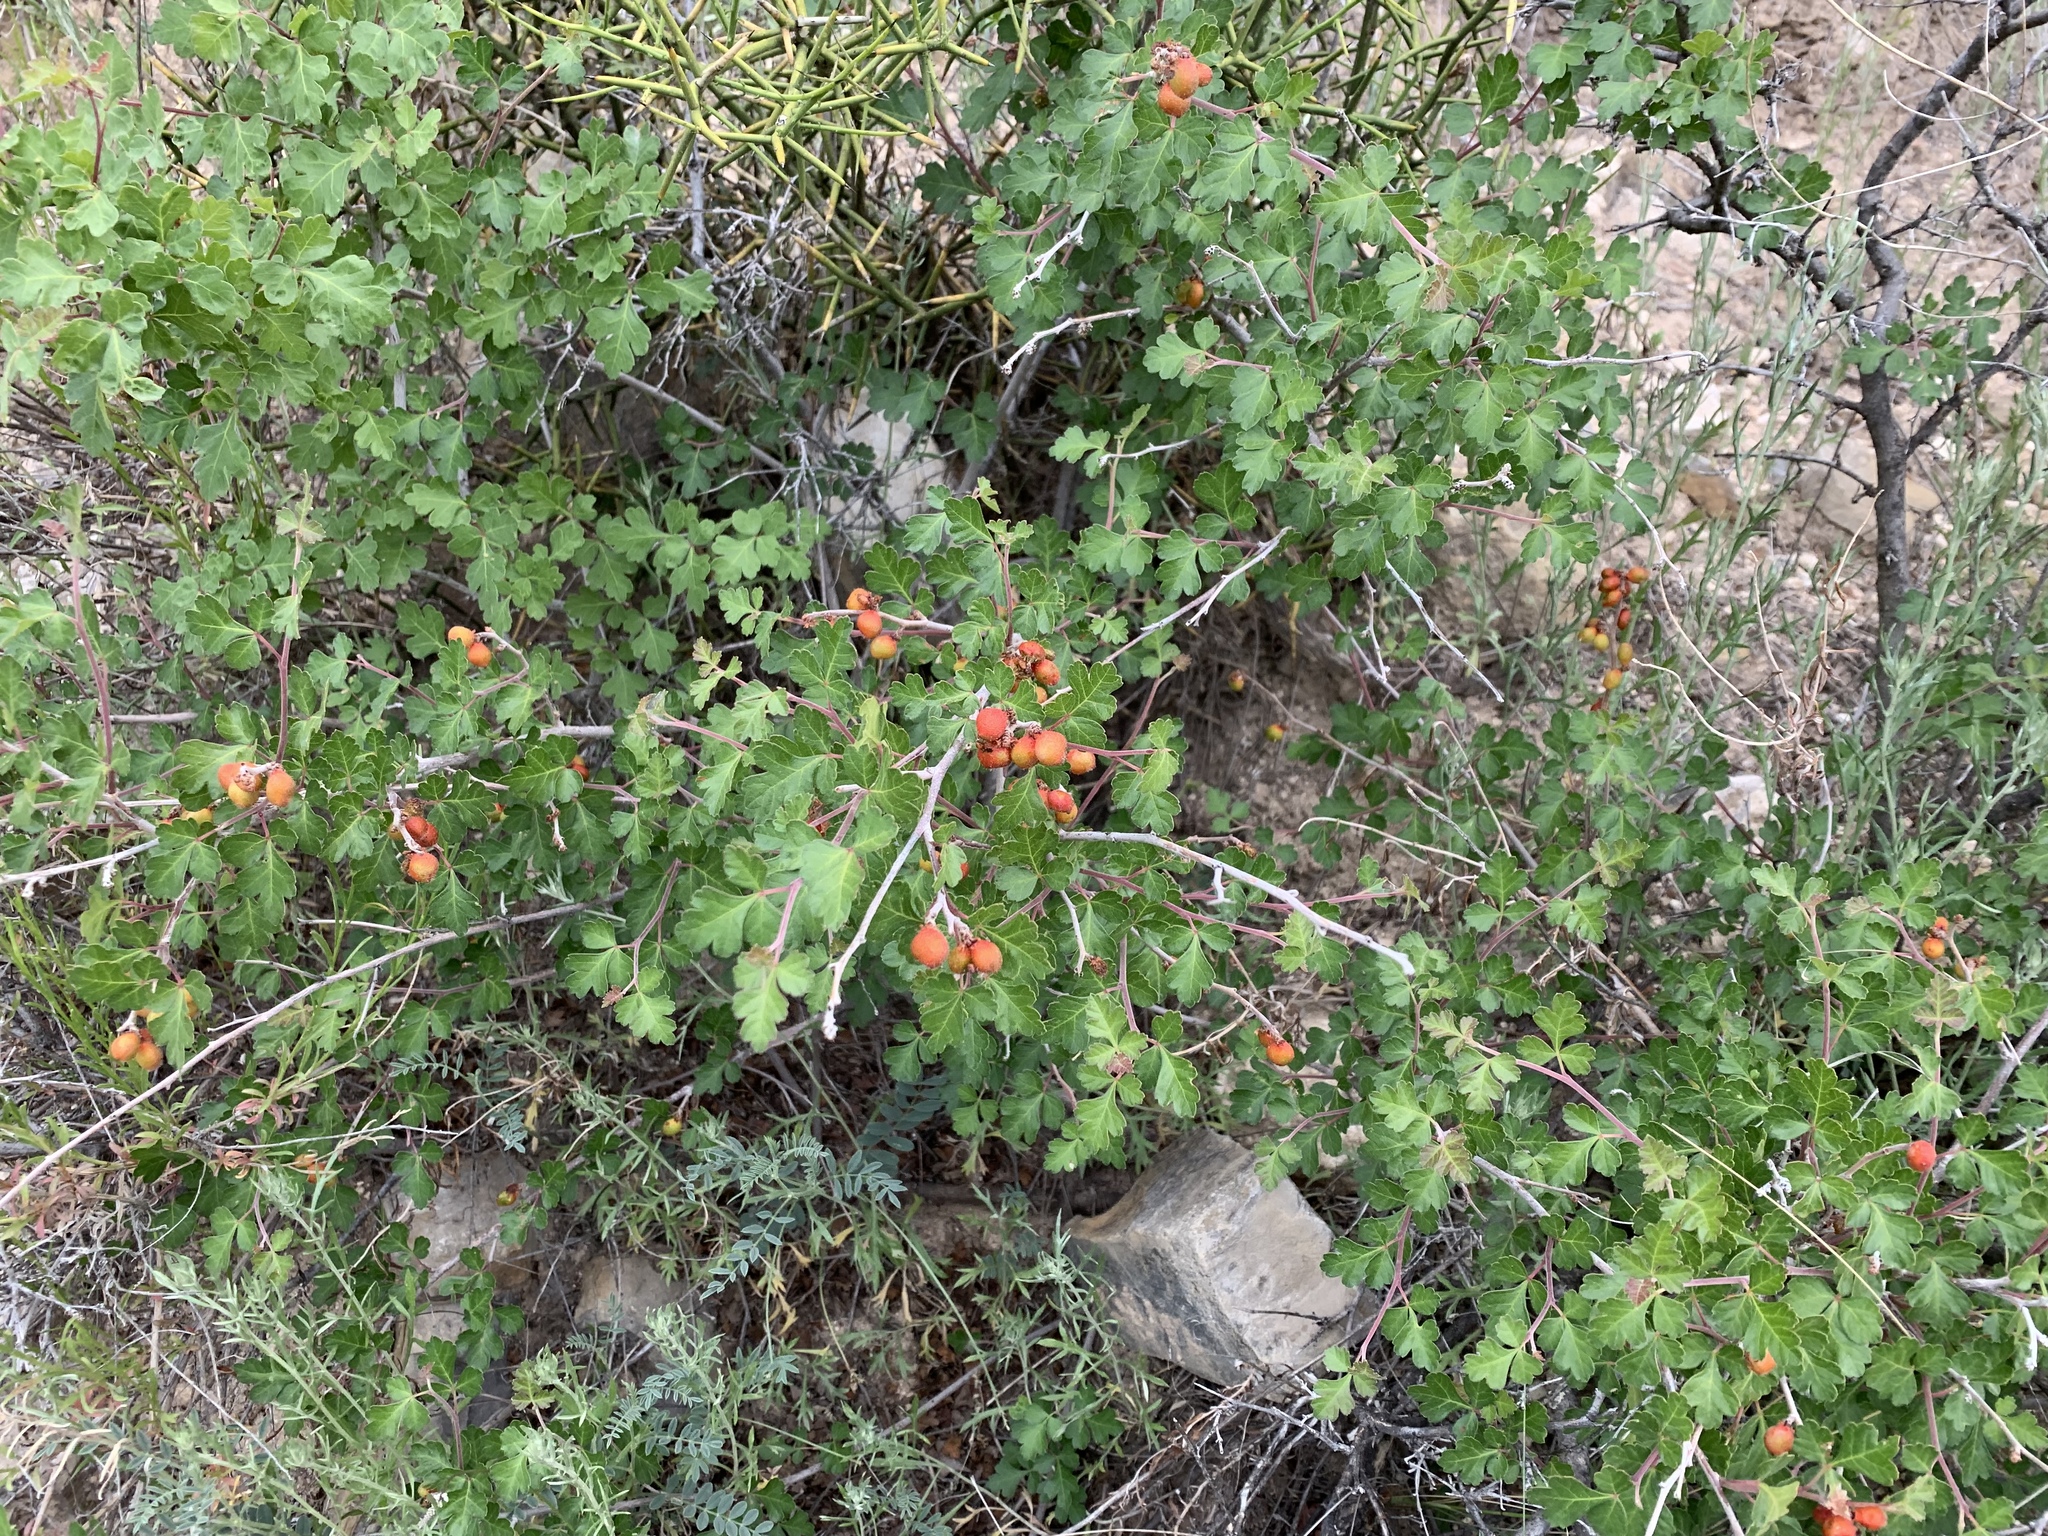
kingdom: Plantae
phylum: Tracheophyta
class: Magnoliopsida
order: Sapindales
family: Anacardiaceae
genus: Rhus
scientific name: Rhus aromatica
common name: Aromatic sumac
